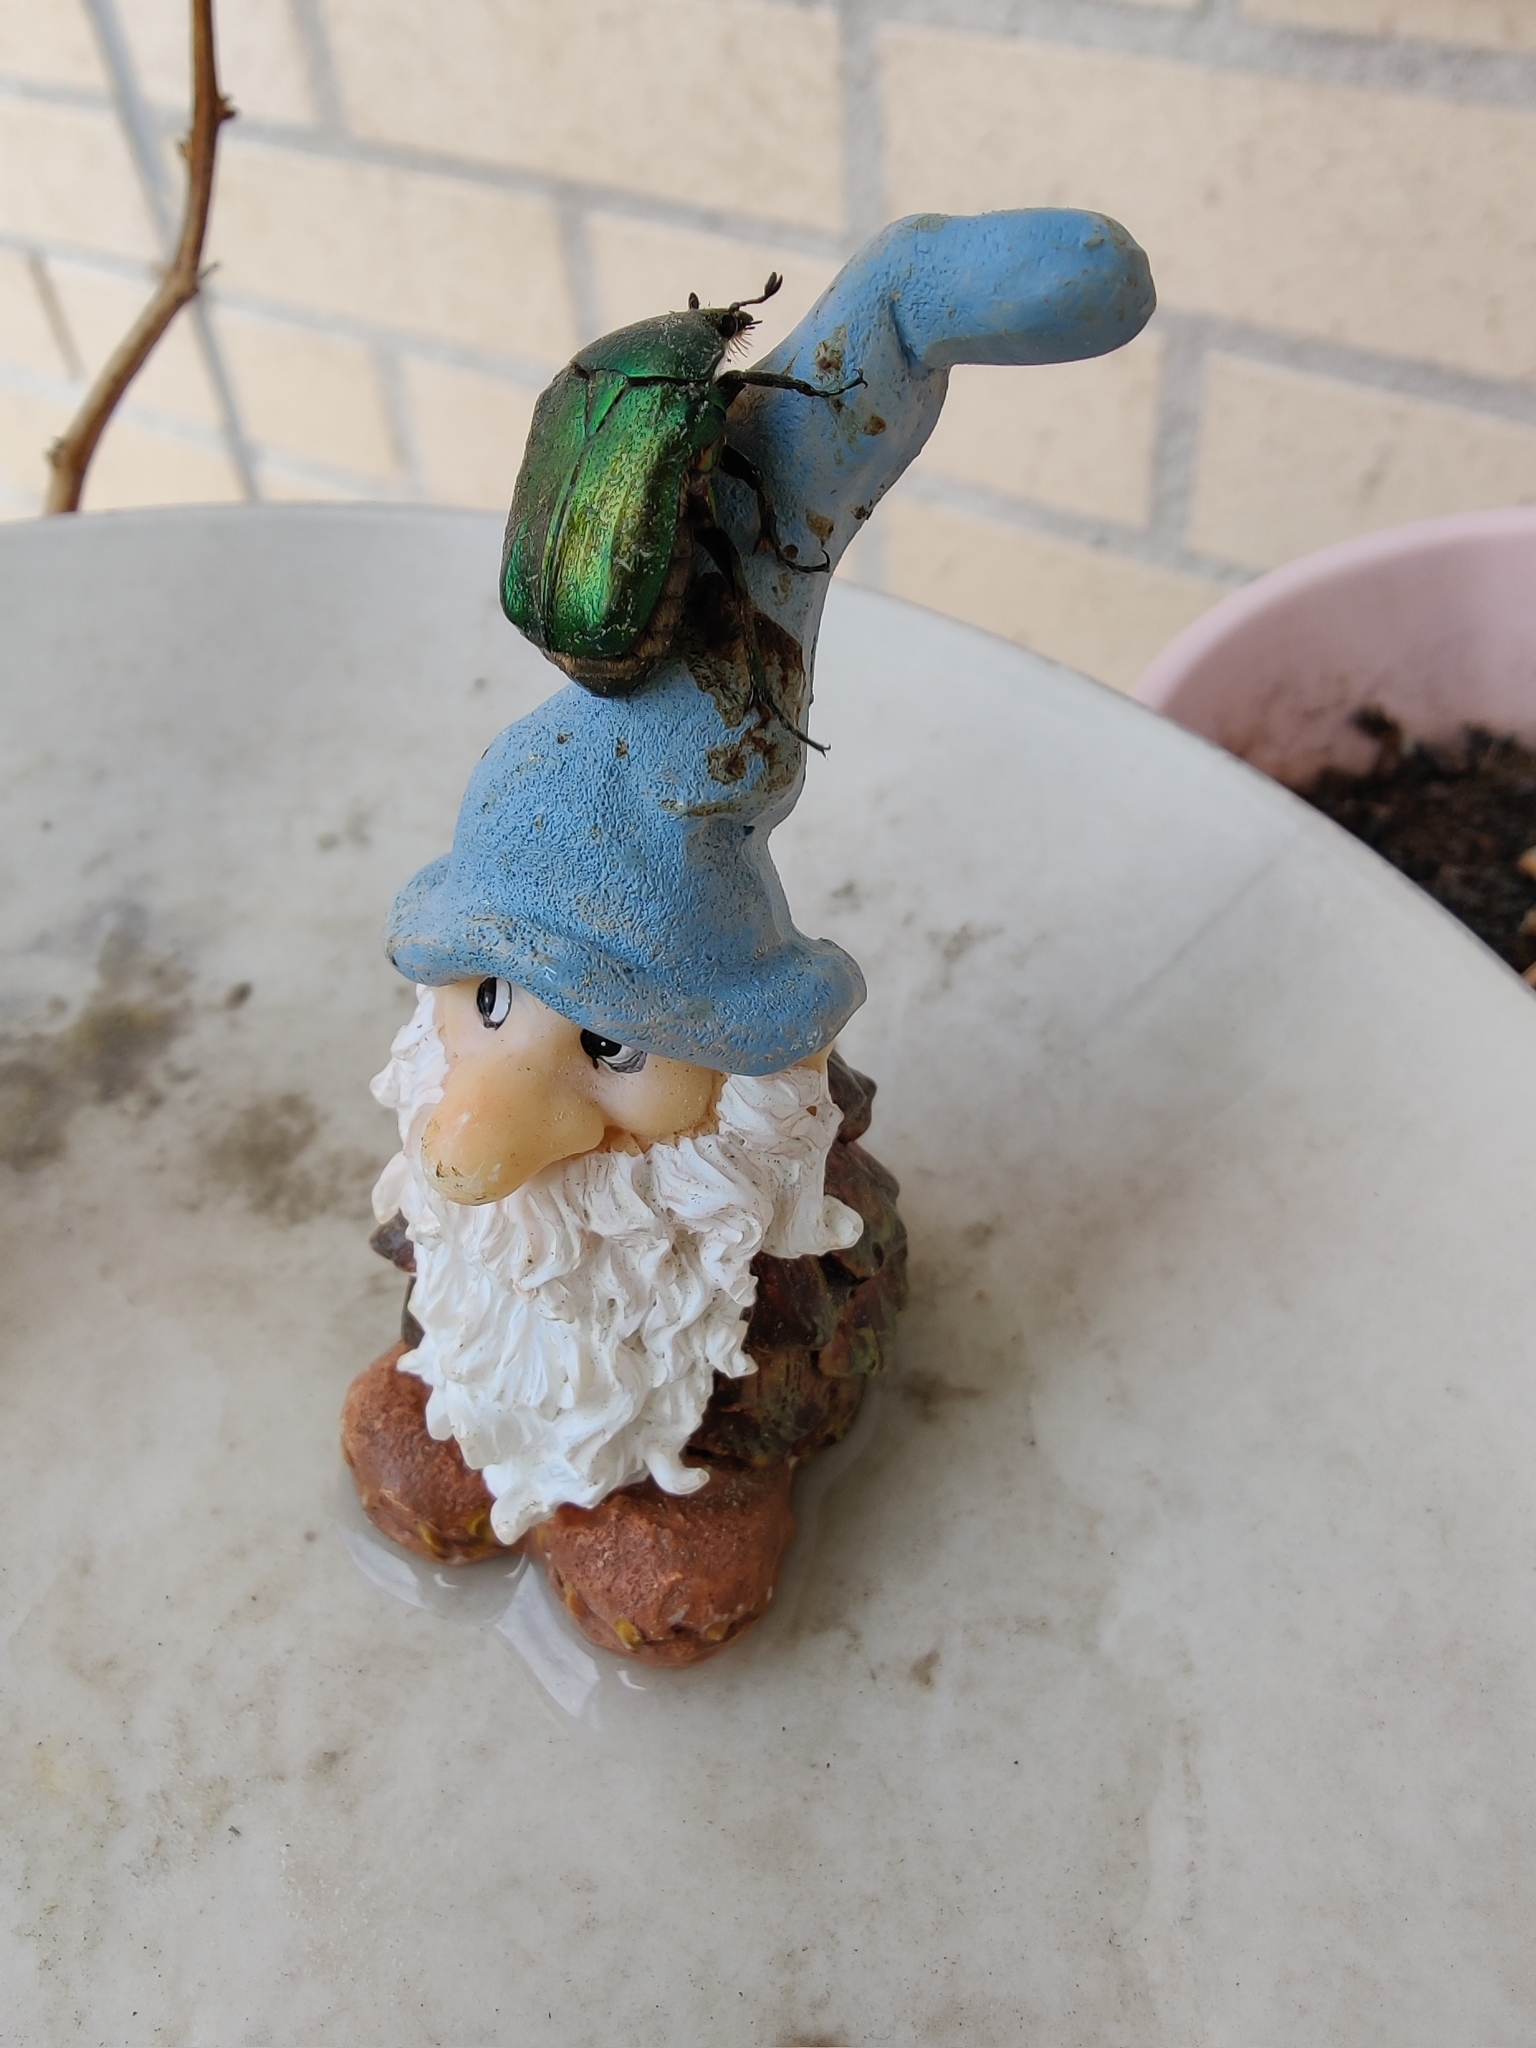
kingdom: Animalia
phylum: Arthropoda
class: Insecta
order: Coleoptera
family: Scarabaeidae
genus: Cetonia
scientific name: Cetonia aurata
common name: Rose chafer
